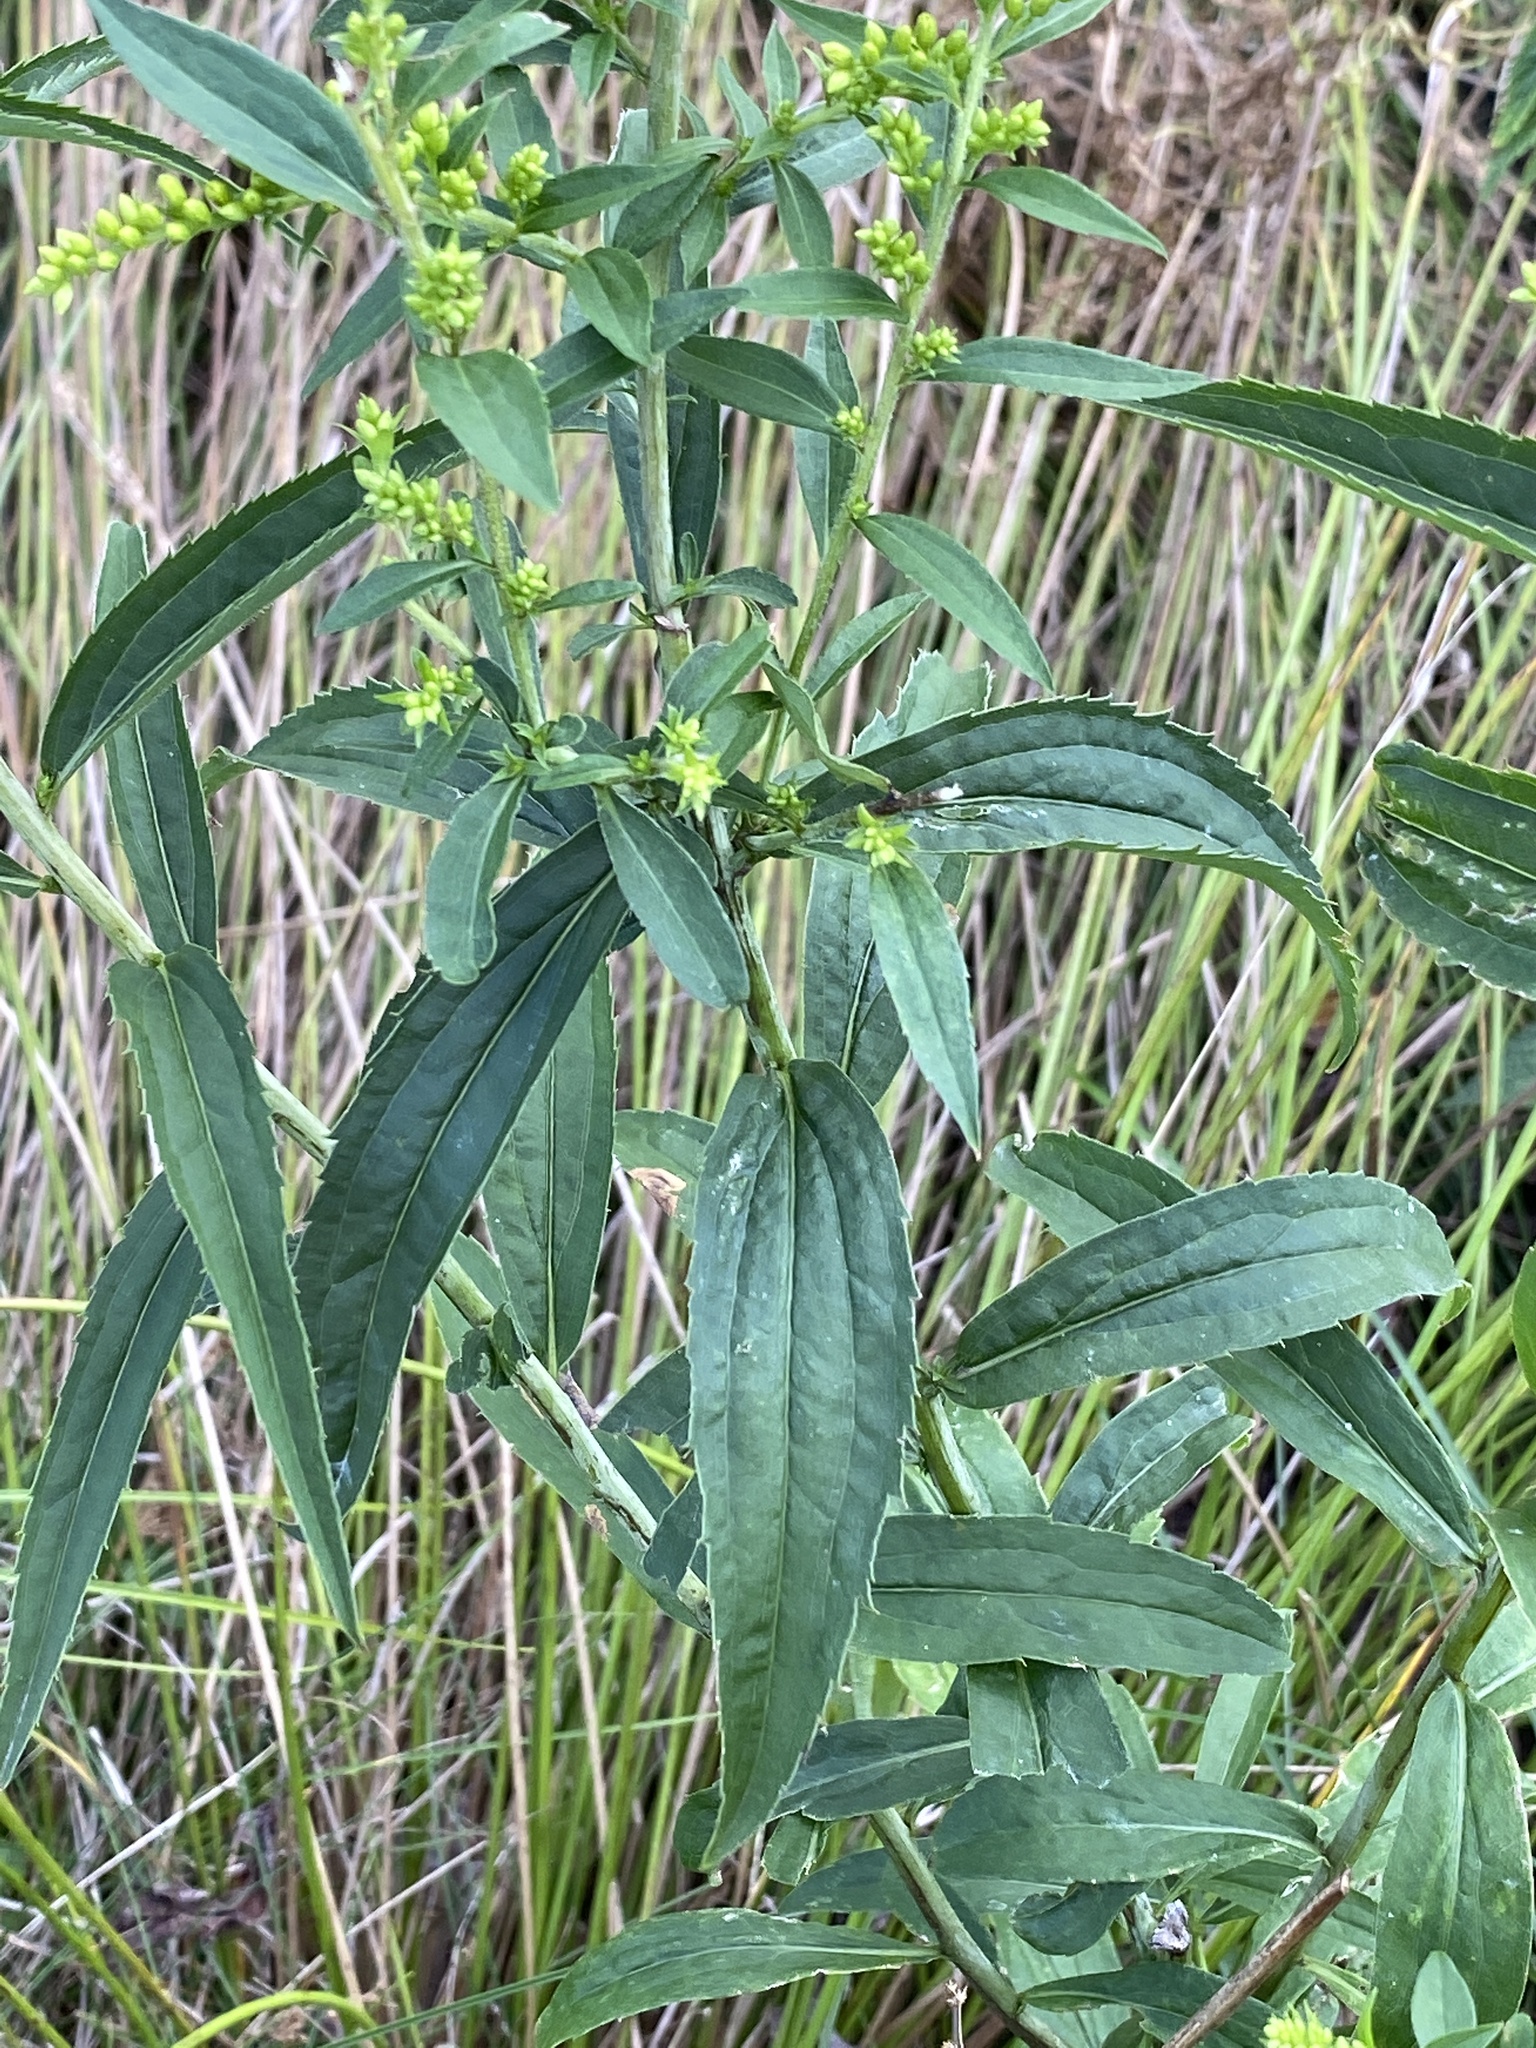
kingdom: Plantae
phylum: Tracheophyta
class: Magnoliopsida
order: Asterales
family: Asteraceae
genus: Solidago
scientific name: Solidago canadensis
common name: Canada goldenrod
